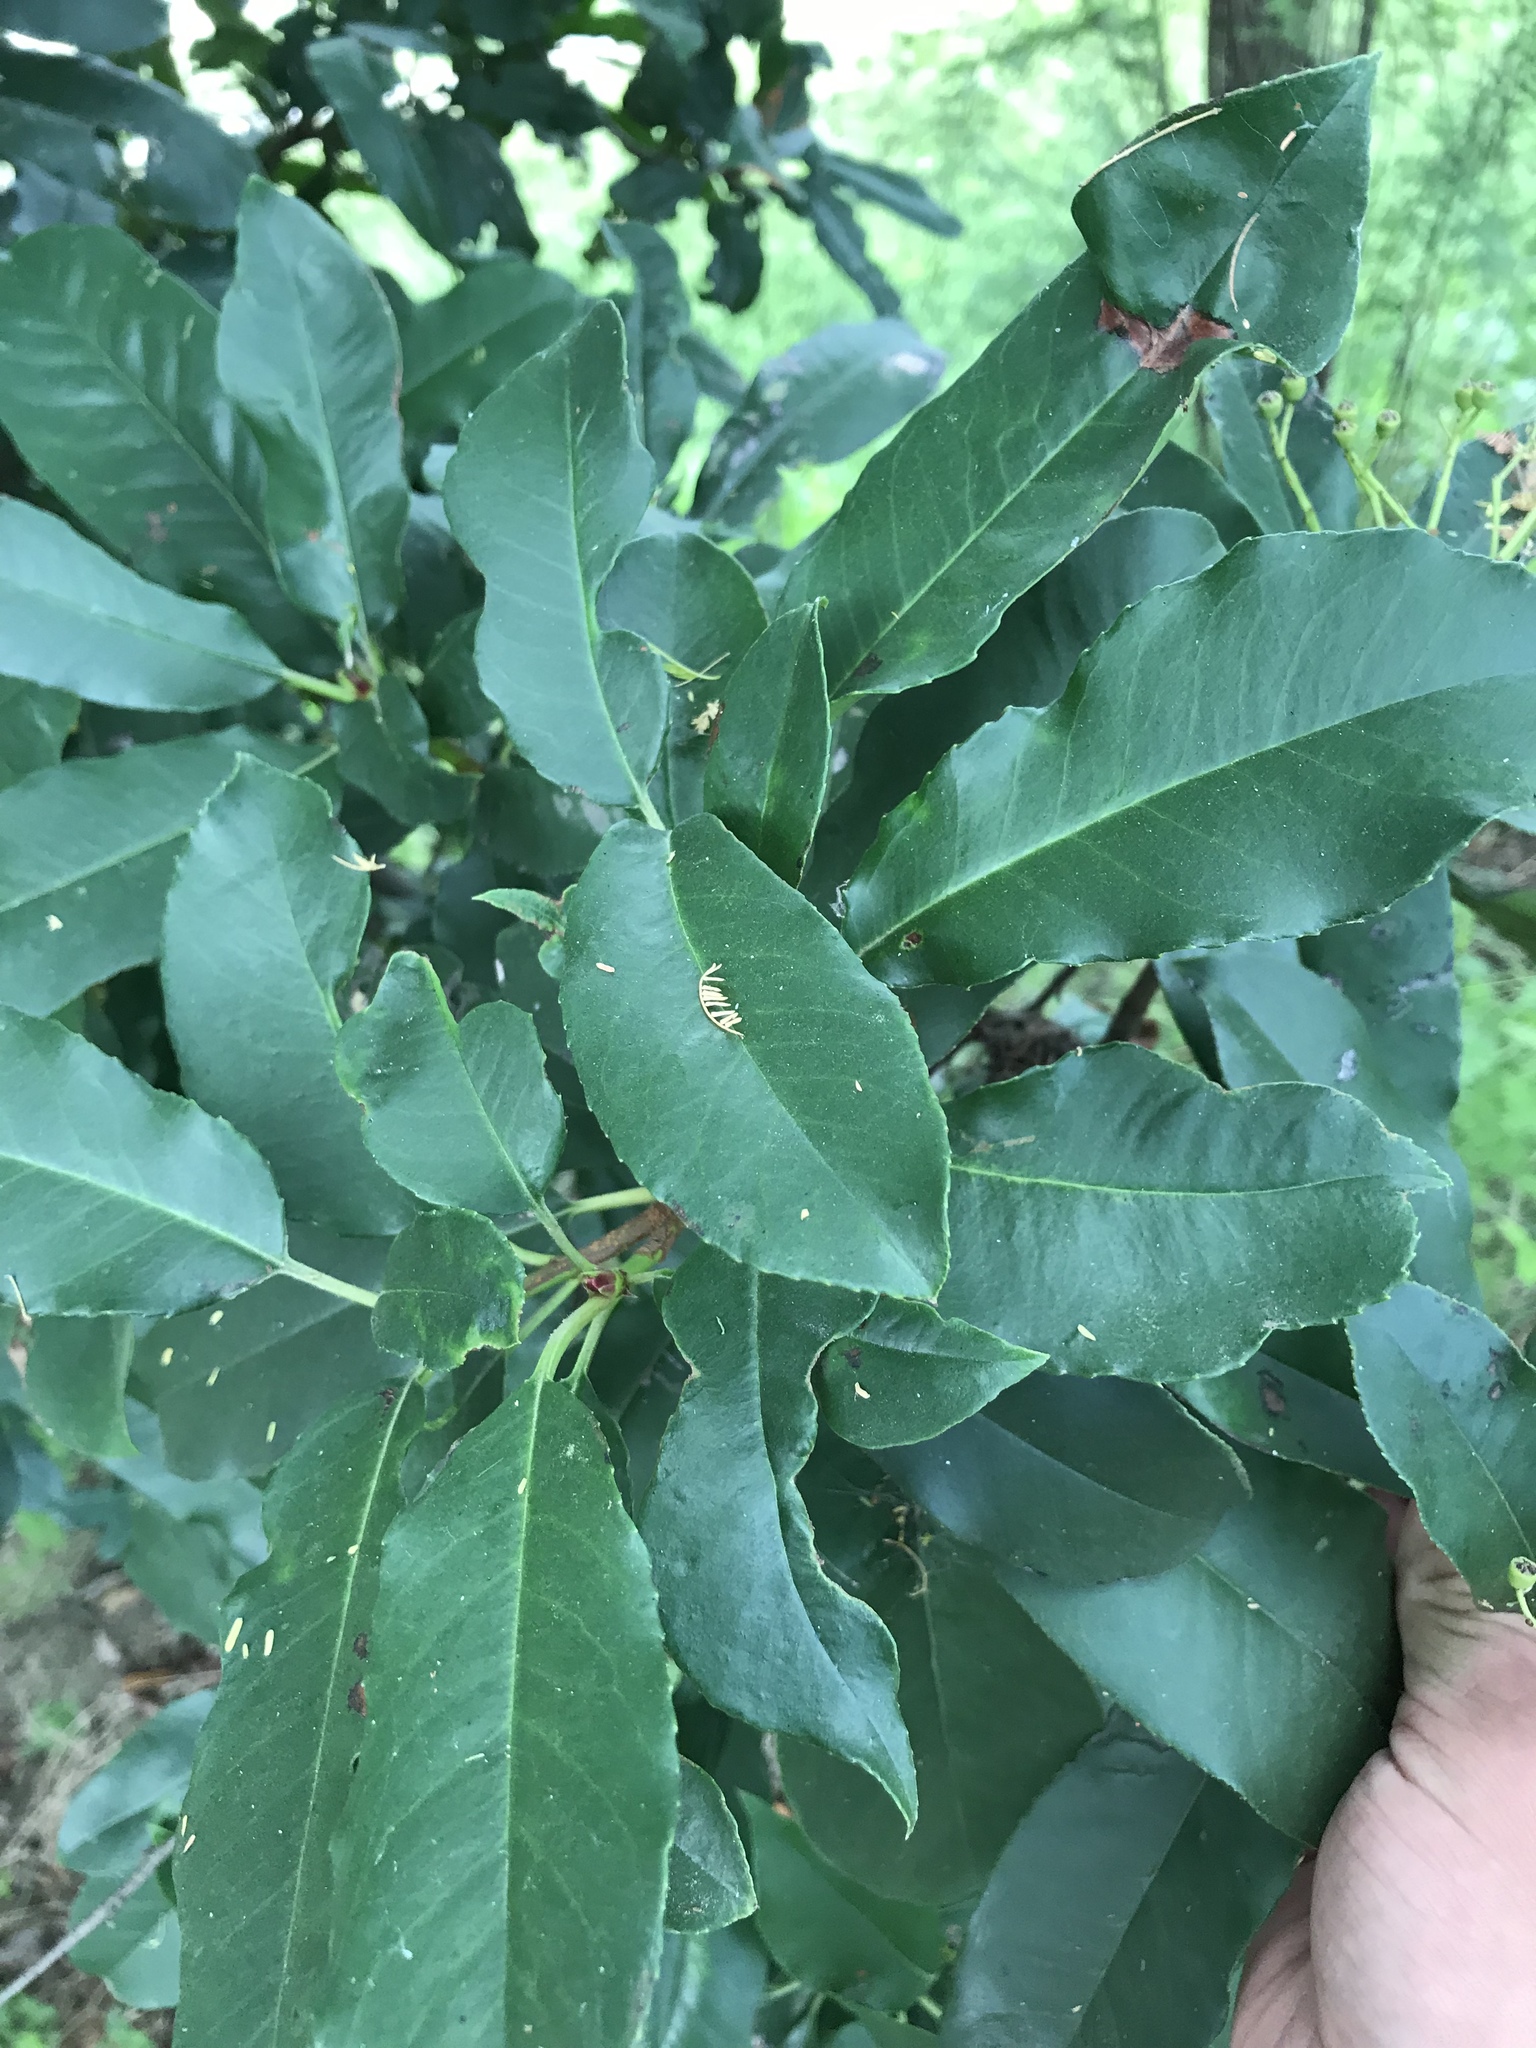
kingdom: Plantae
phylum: Tracheophyta
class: Magnoliopsida
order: Rosales
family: Rosaceae
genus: Photinia
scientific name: Photinia serratifolia
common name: Taiwanese photinia
